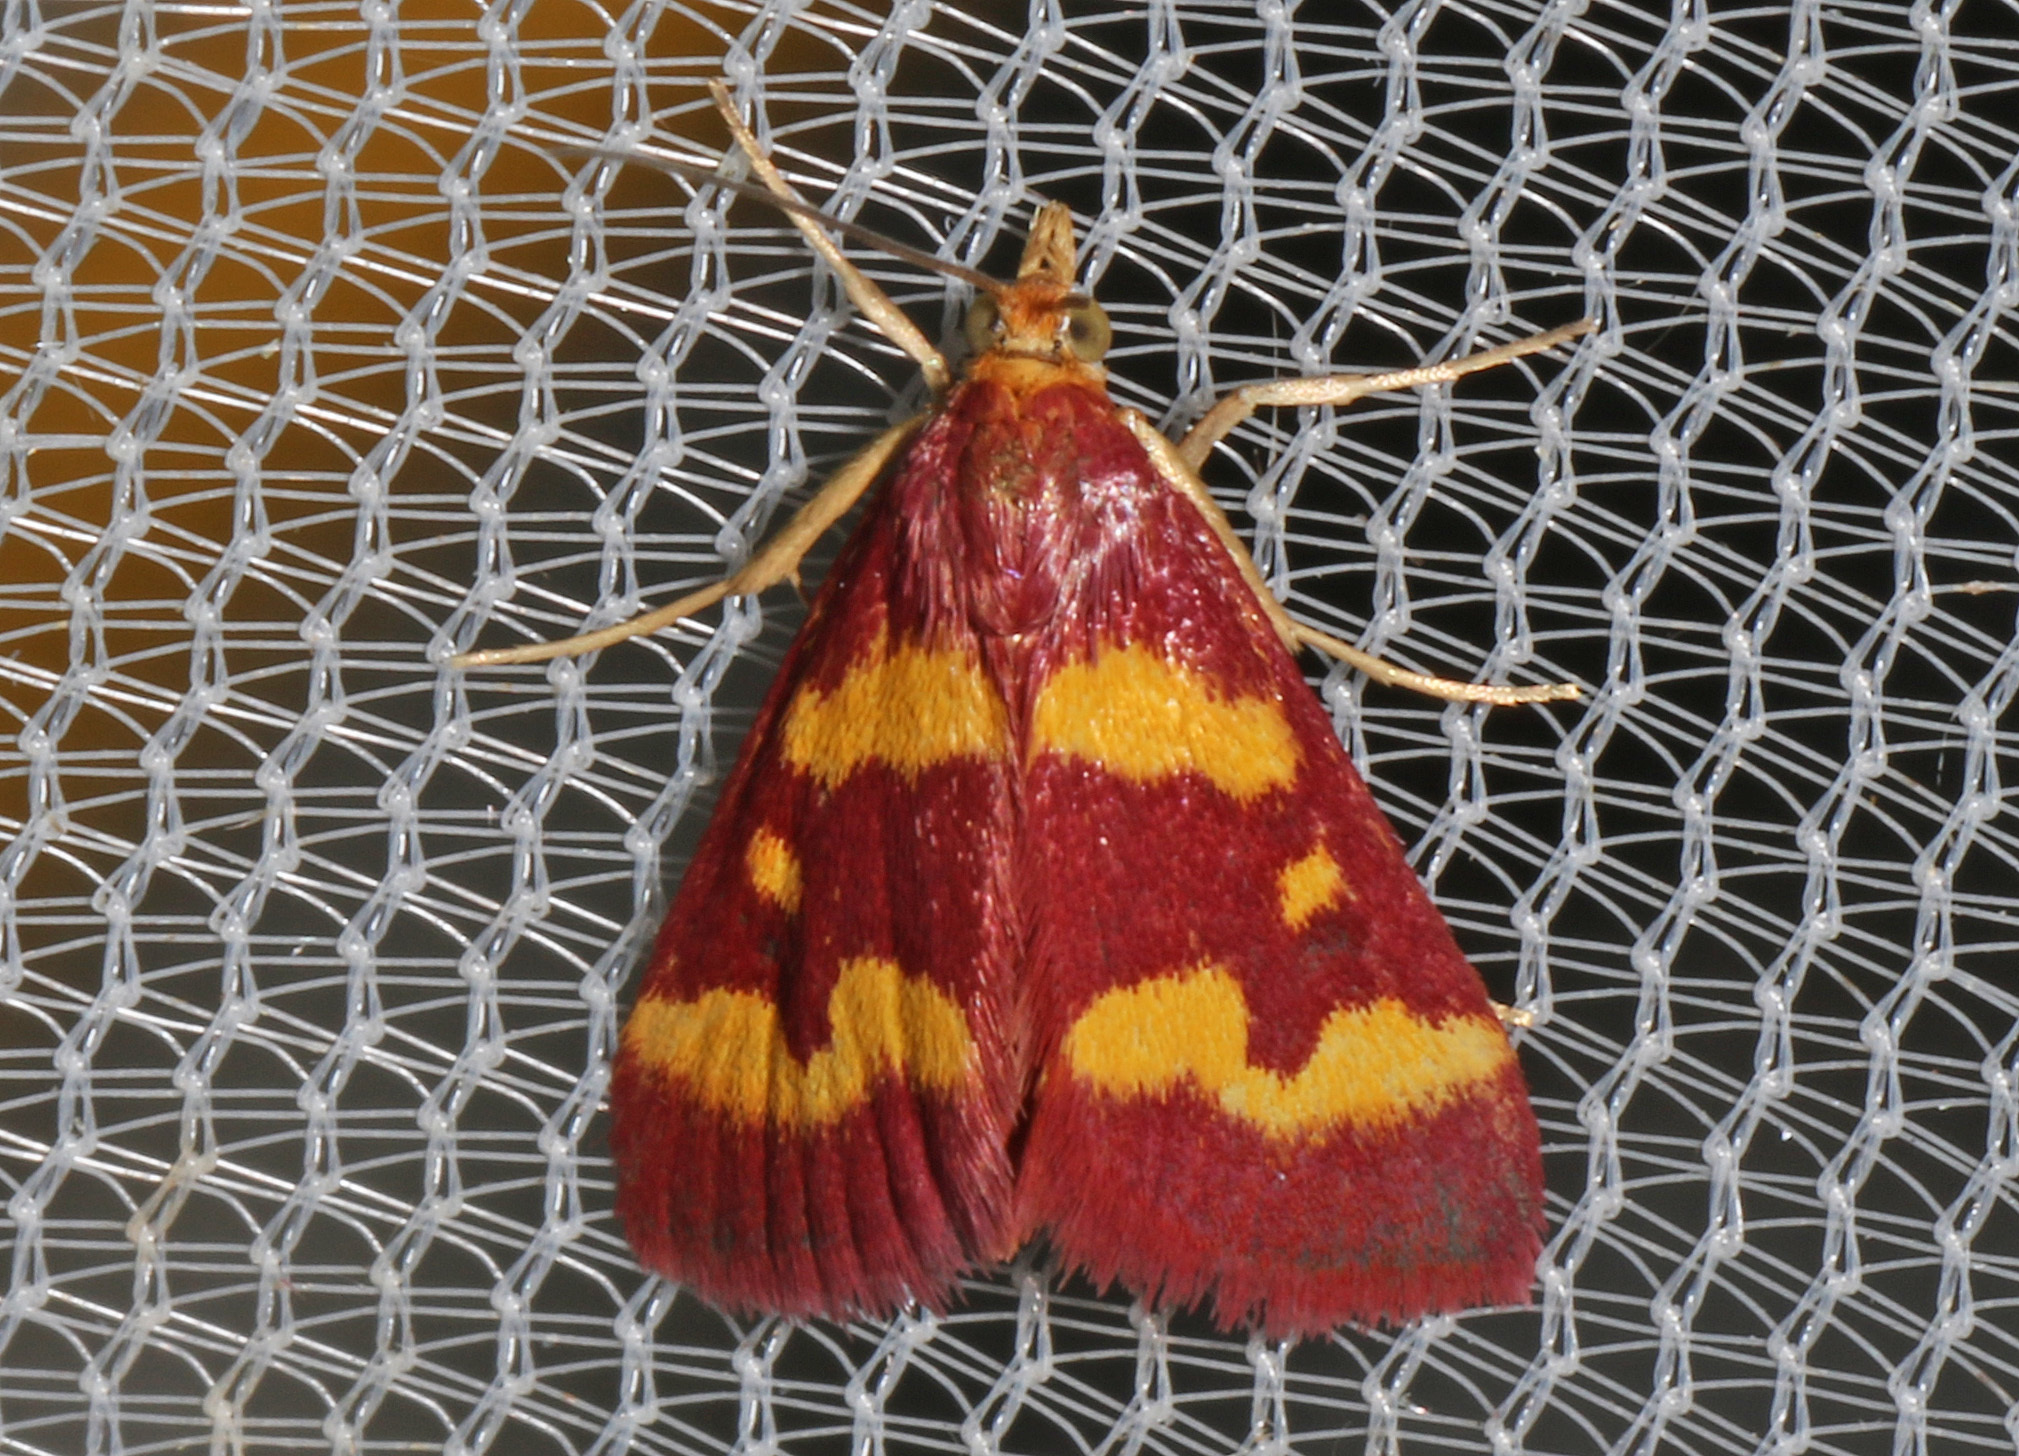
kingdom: Animalia
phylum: Arthropoda
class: Insecta
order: Lepidoptera
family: Crambidae
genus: Pyrausta
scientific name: Pyrausta tyralis
